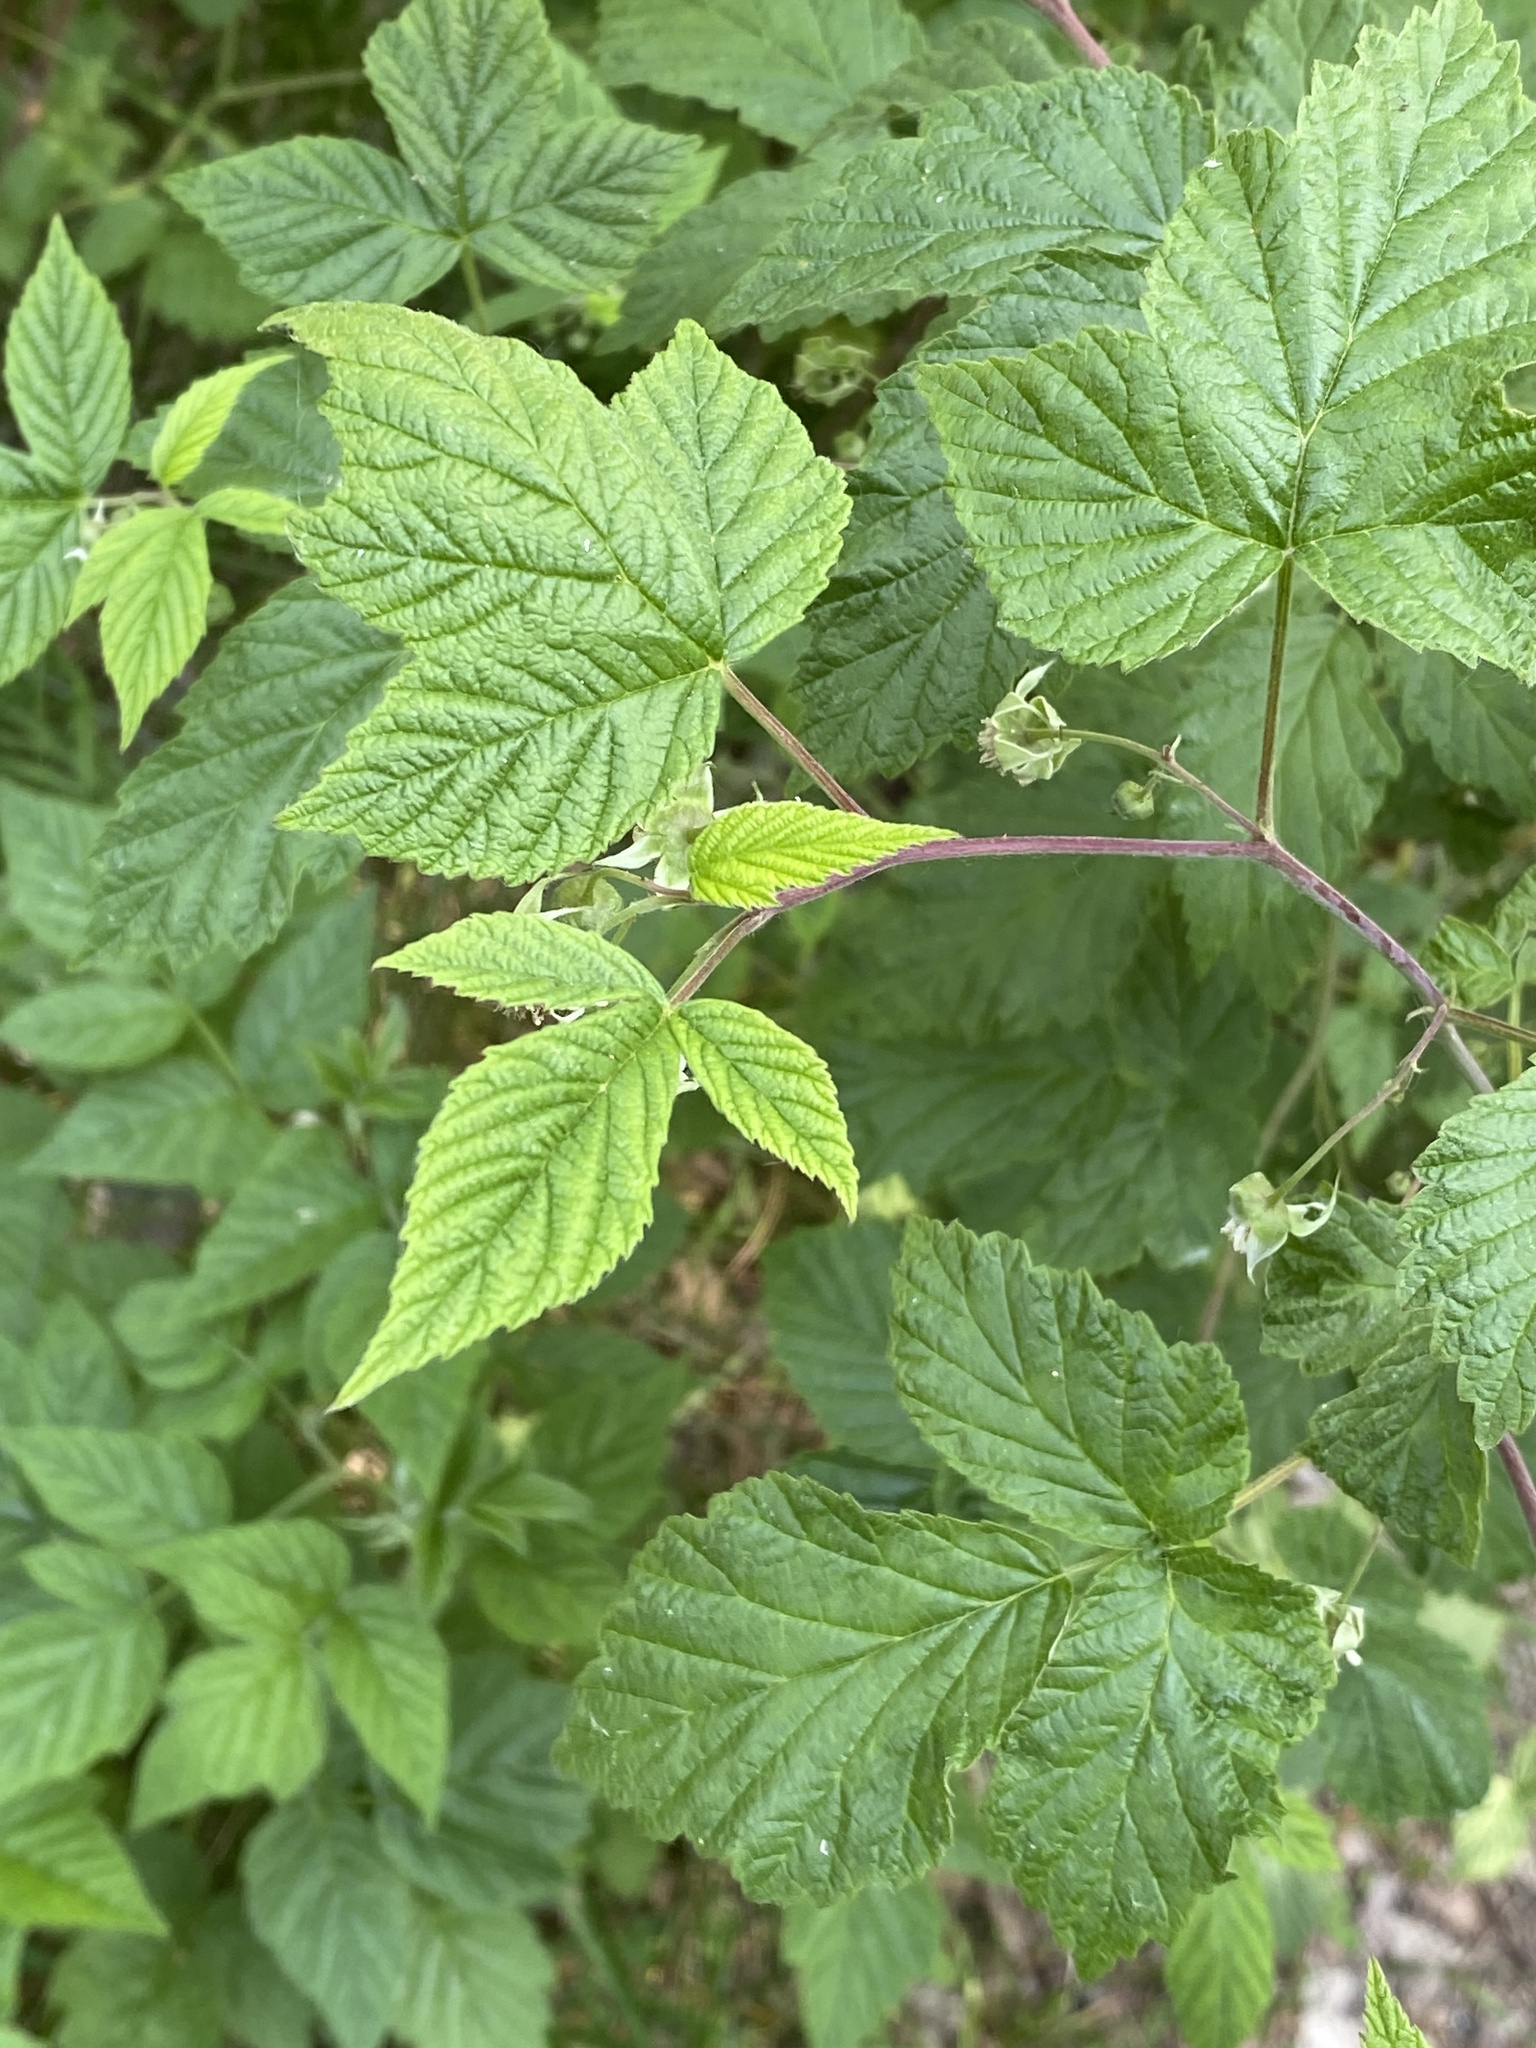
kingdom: Plantae
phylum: Tracheophyta
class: Magnoliopsida
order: Rosales
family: Rosaceae
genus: Rubus
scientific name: Rubus idaeus
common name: Raspberry
